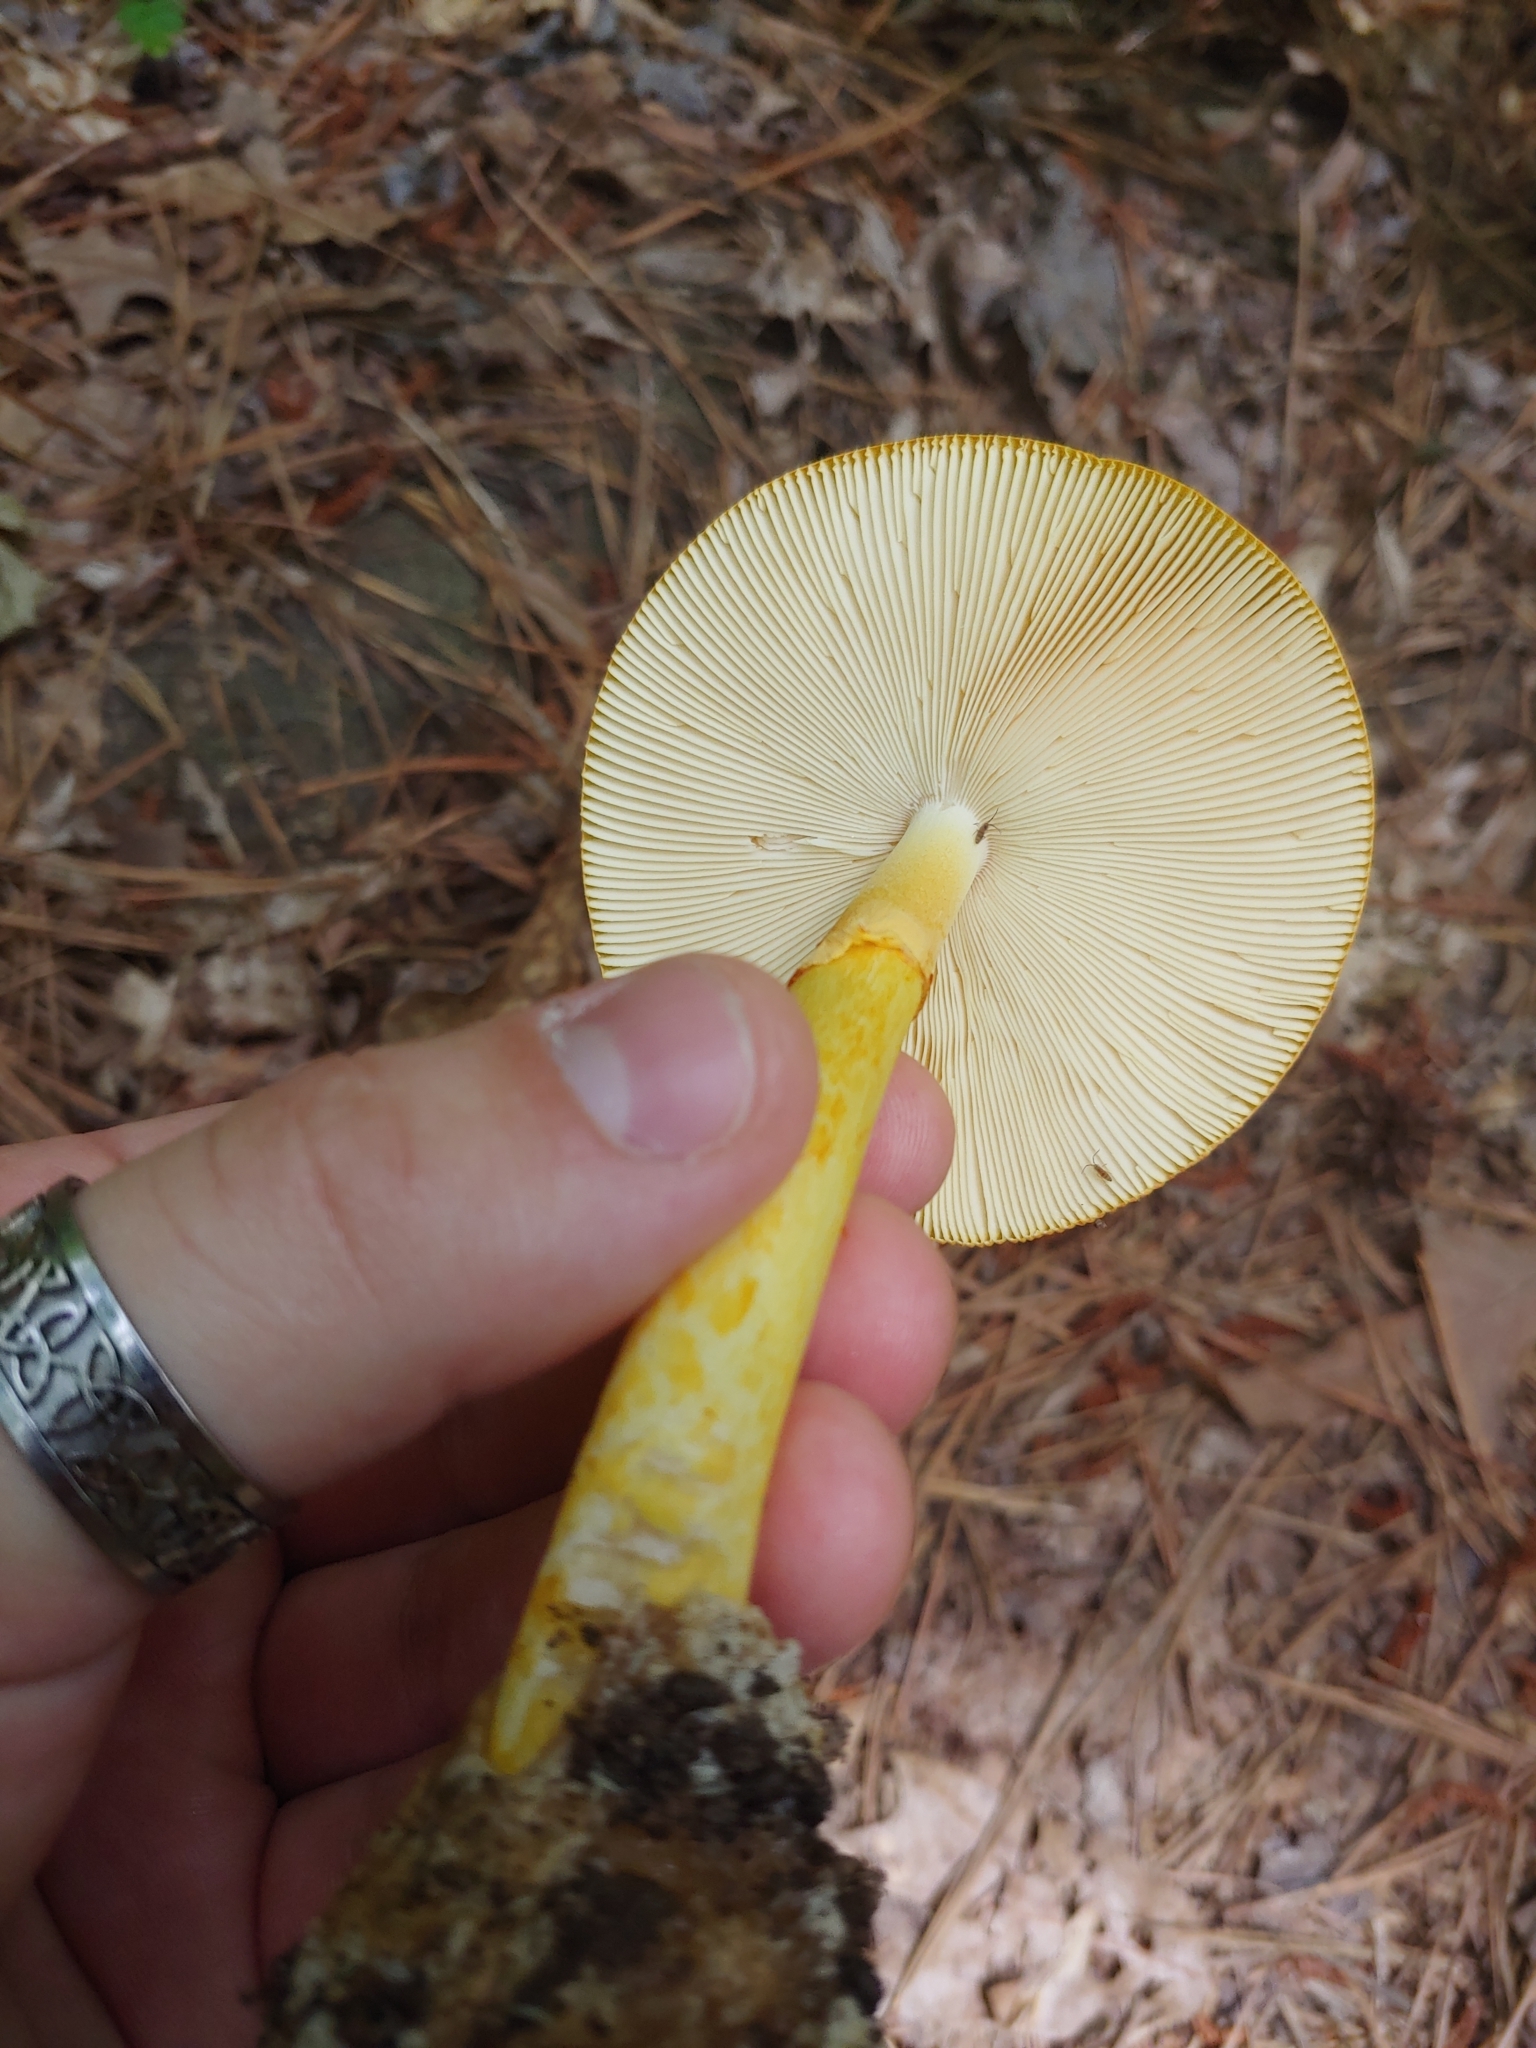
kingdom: Fungi
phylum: Basidiomycota
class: Agaricomycetes
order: Agaricales
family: Amanitaceae
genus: Amanita
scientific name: Amanita jacksonii
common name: Jackson's slender caesar
